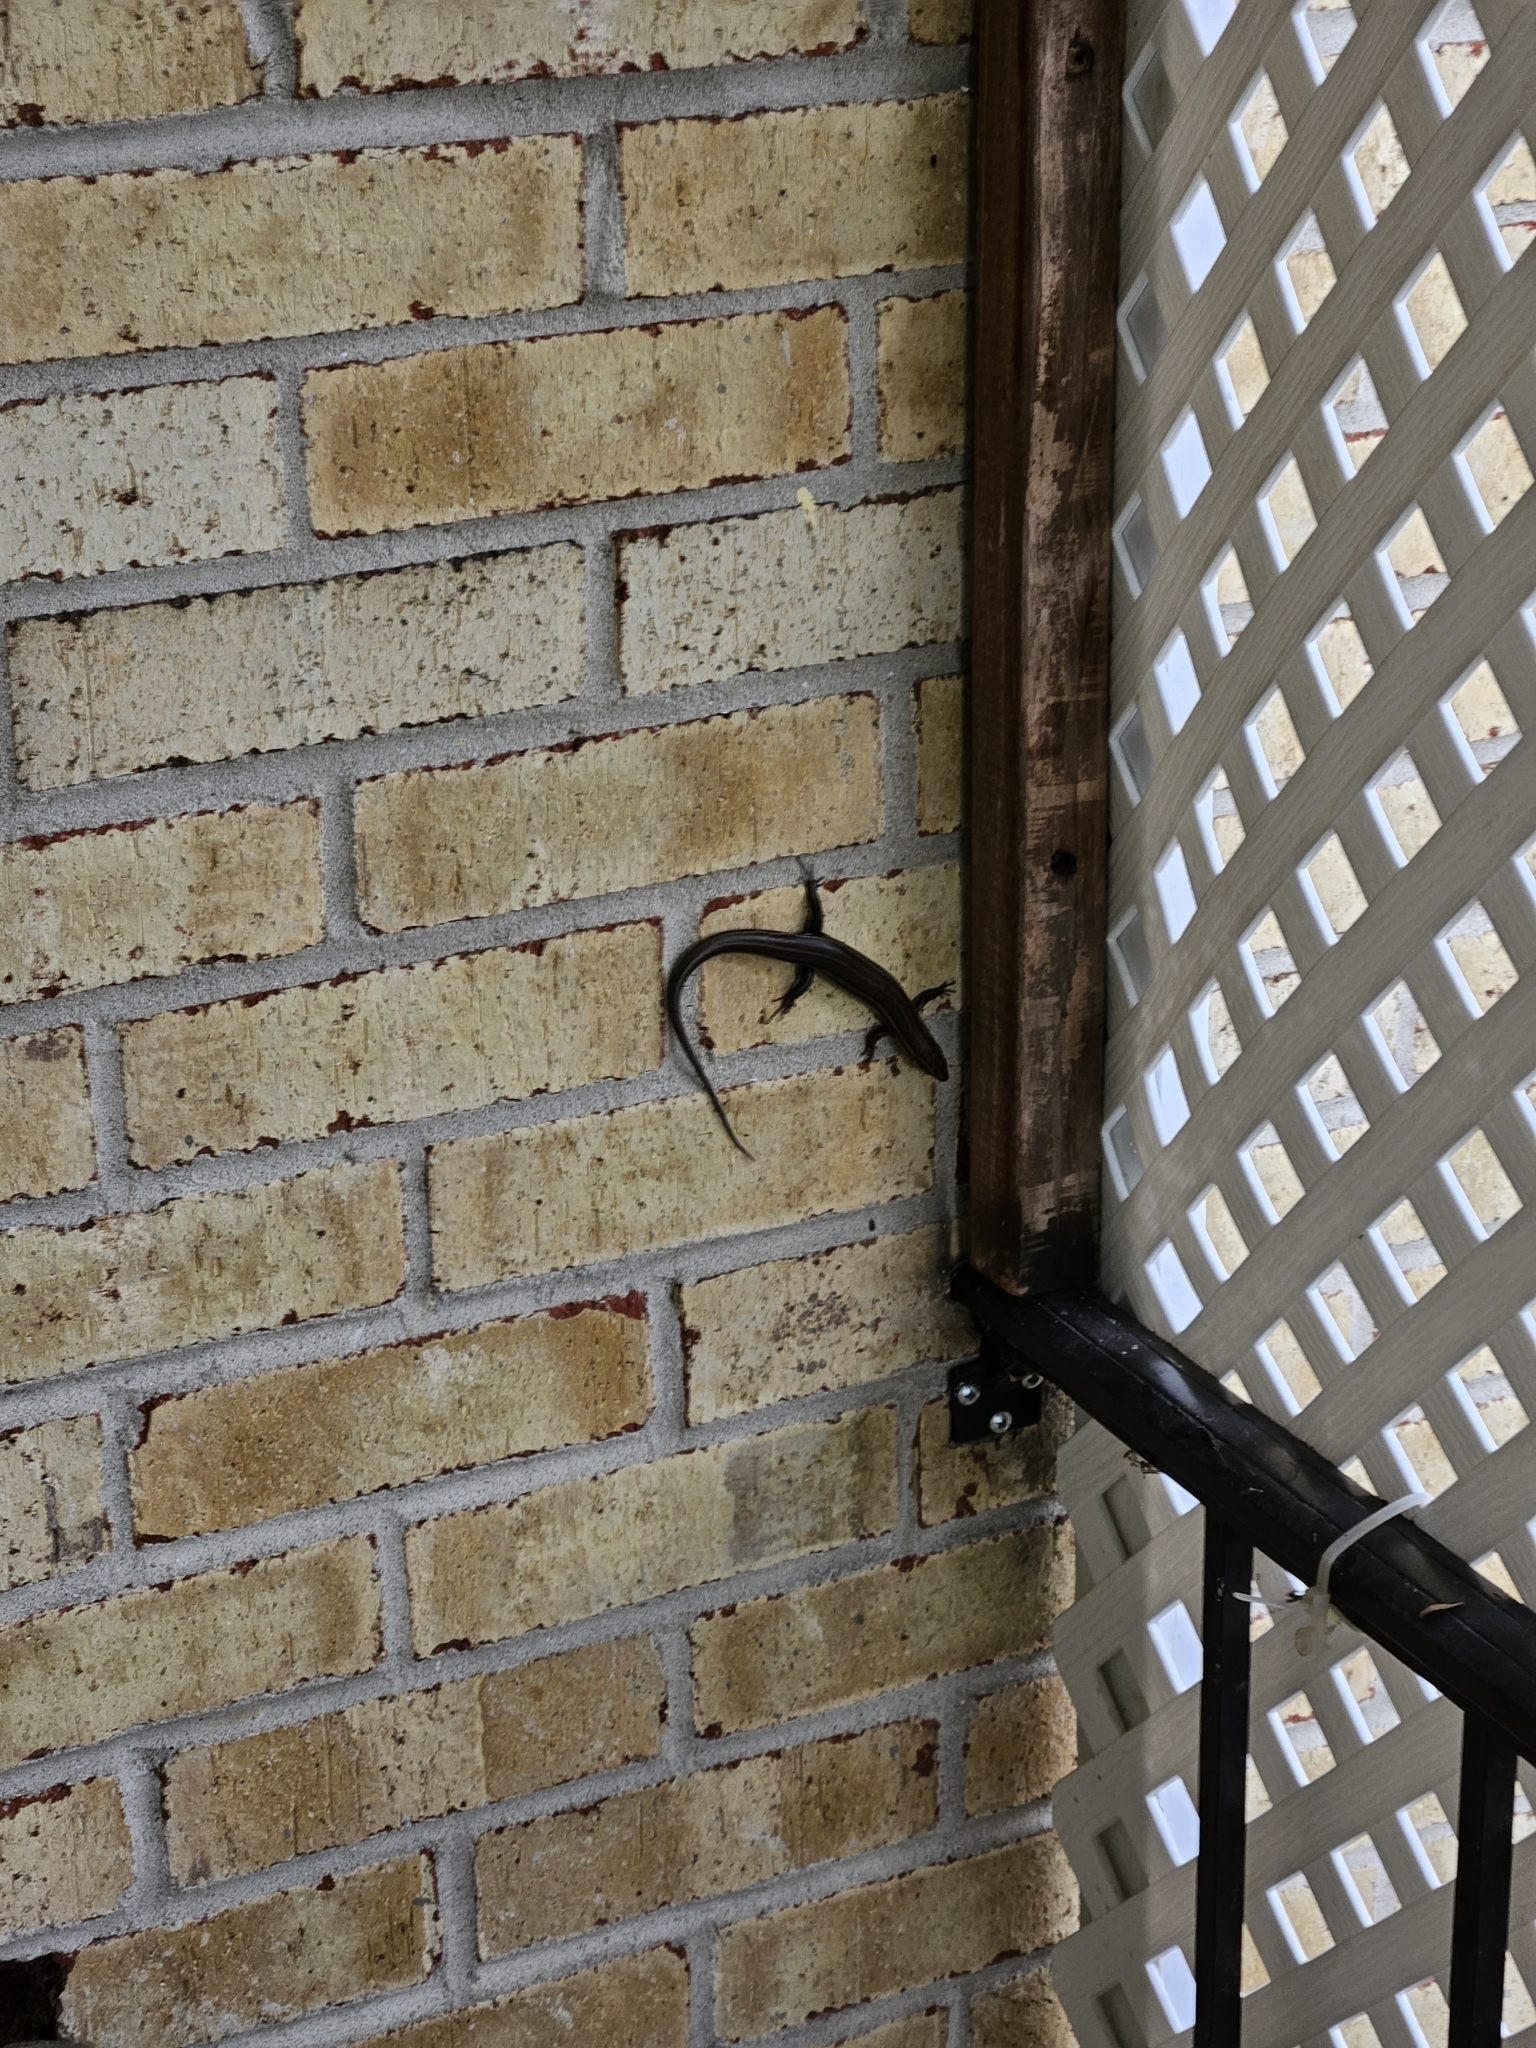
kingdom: Animalia
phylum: Chordata
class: Squamata
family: Scincidae
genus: Plestiodon
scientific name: Plestiodon inexpectatus
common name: Southeastern five-lined skink
